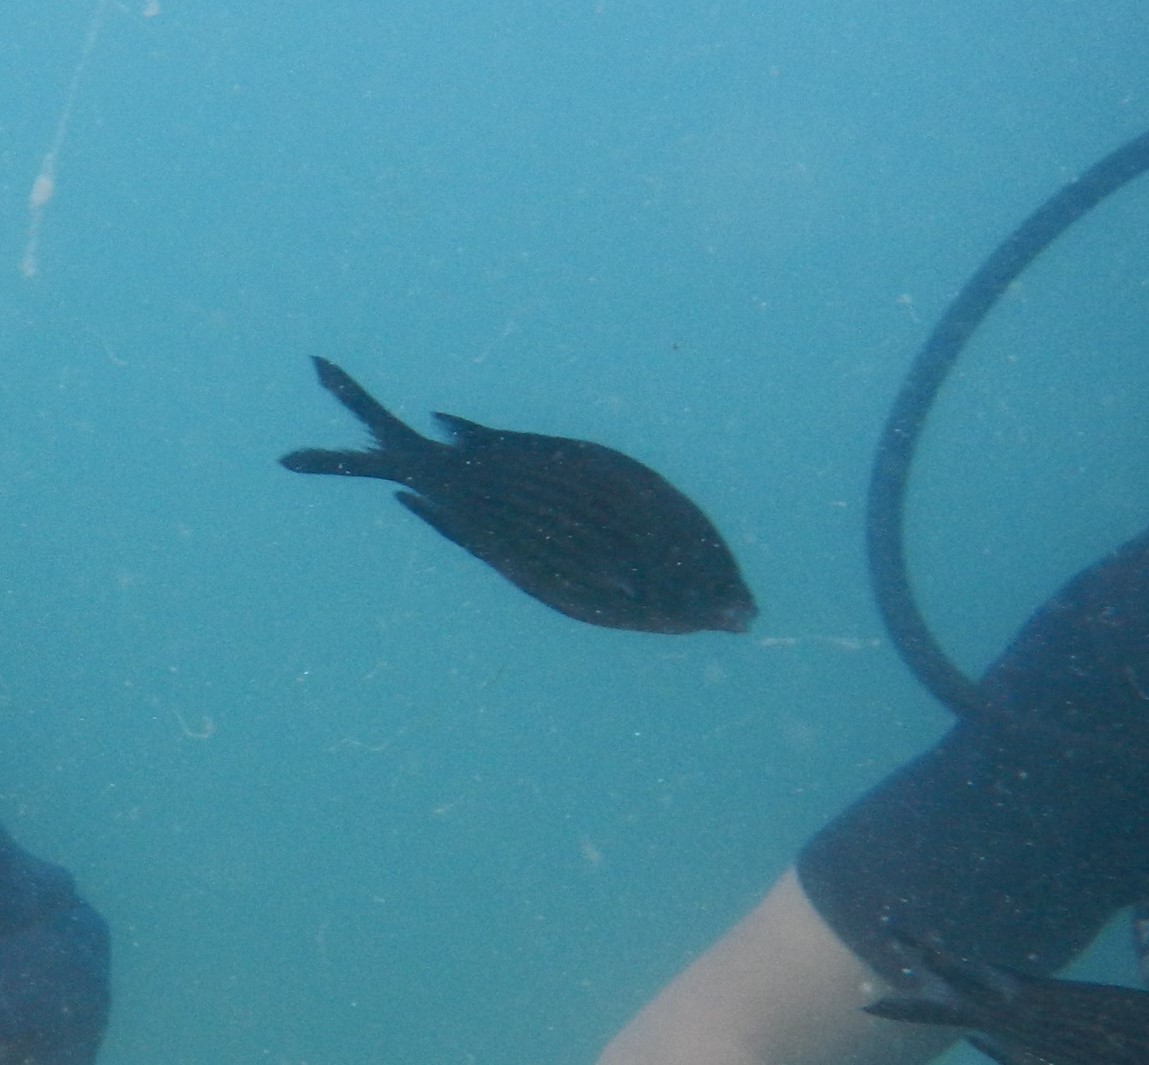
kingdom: Animalia
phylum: Chordata
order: Perciformes
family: Pomacentridae
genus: Chromis
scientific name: Chromis chromis
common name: Damselfish
